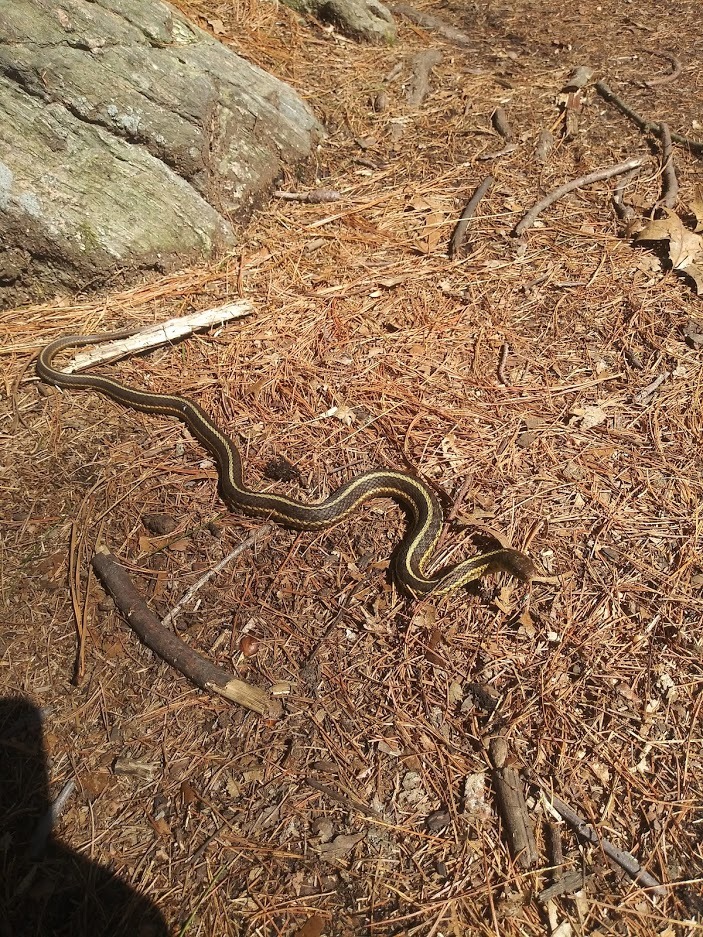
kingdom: Animalia
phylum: Chordata
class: Squamata
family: Colubridae
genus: Thamnophis
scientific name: Thamnophis sirtalis
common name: Common garter snake
